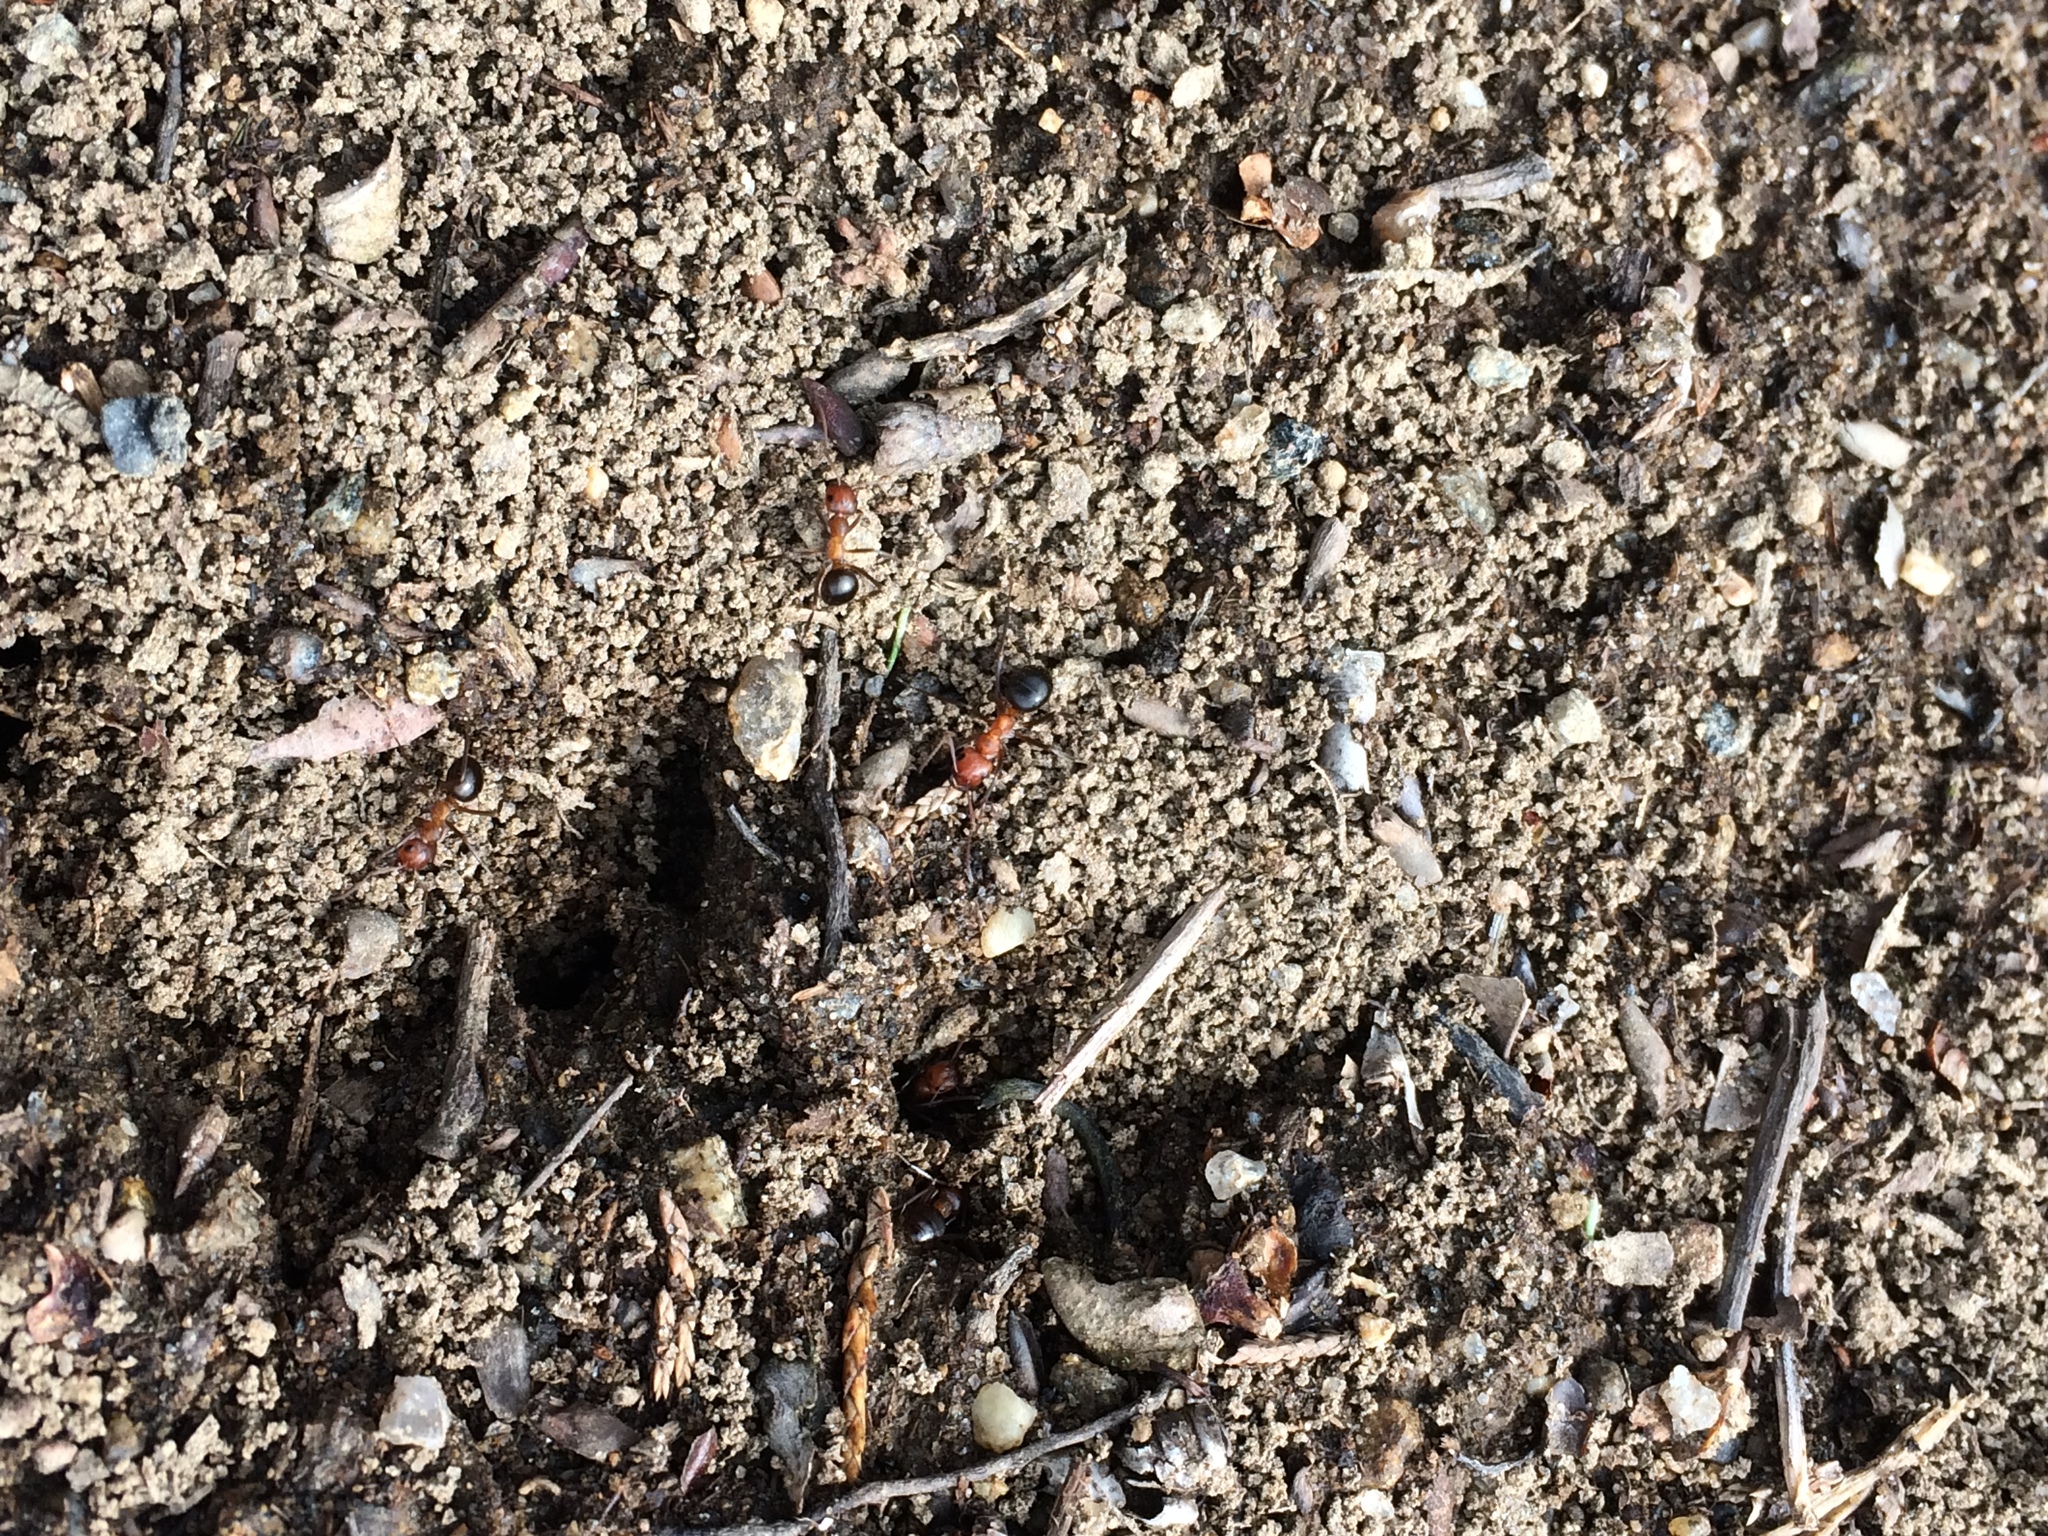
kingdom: Animalia
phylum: Arthropoda
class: Insecta
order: Hymenoptera
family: Formicidae
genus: Formica
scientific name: Formica exsectoides
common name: Allegheny mound ant
